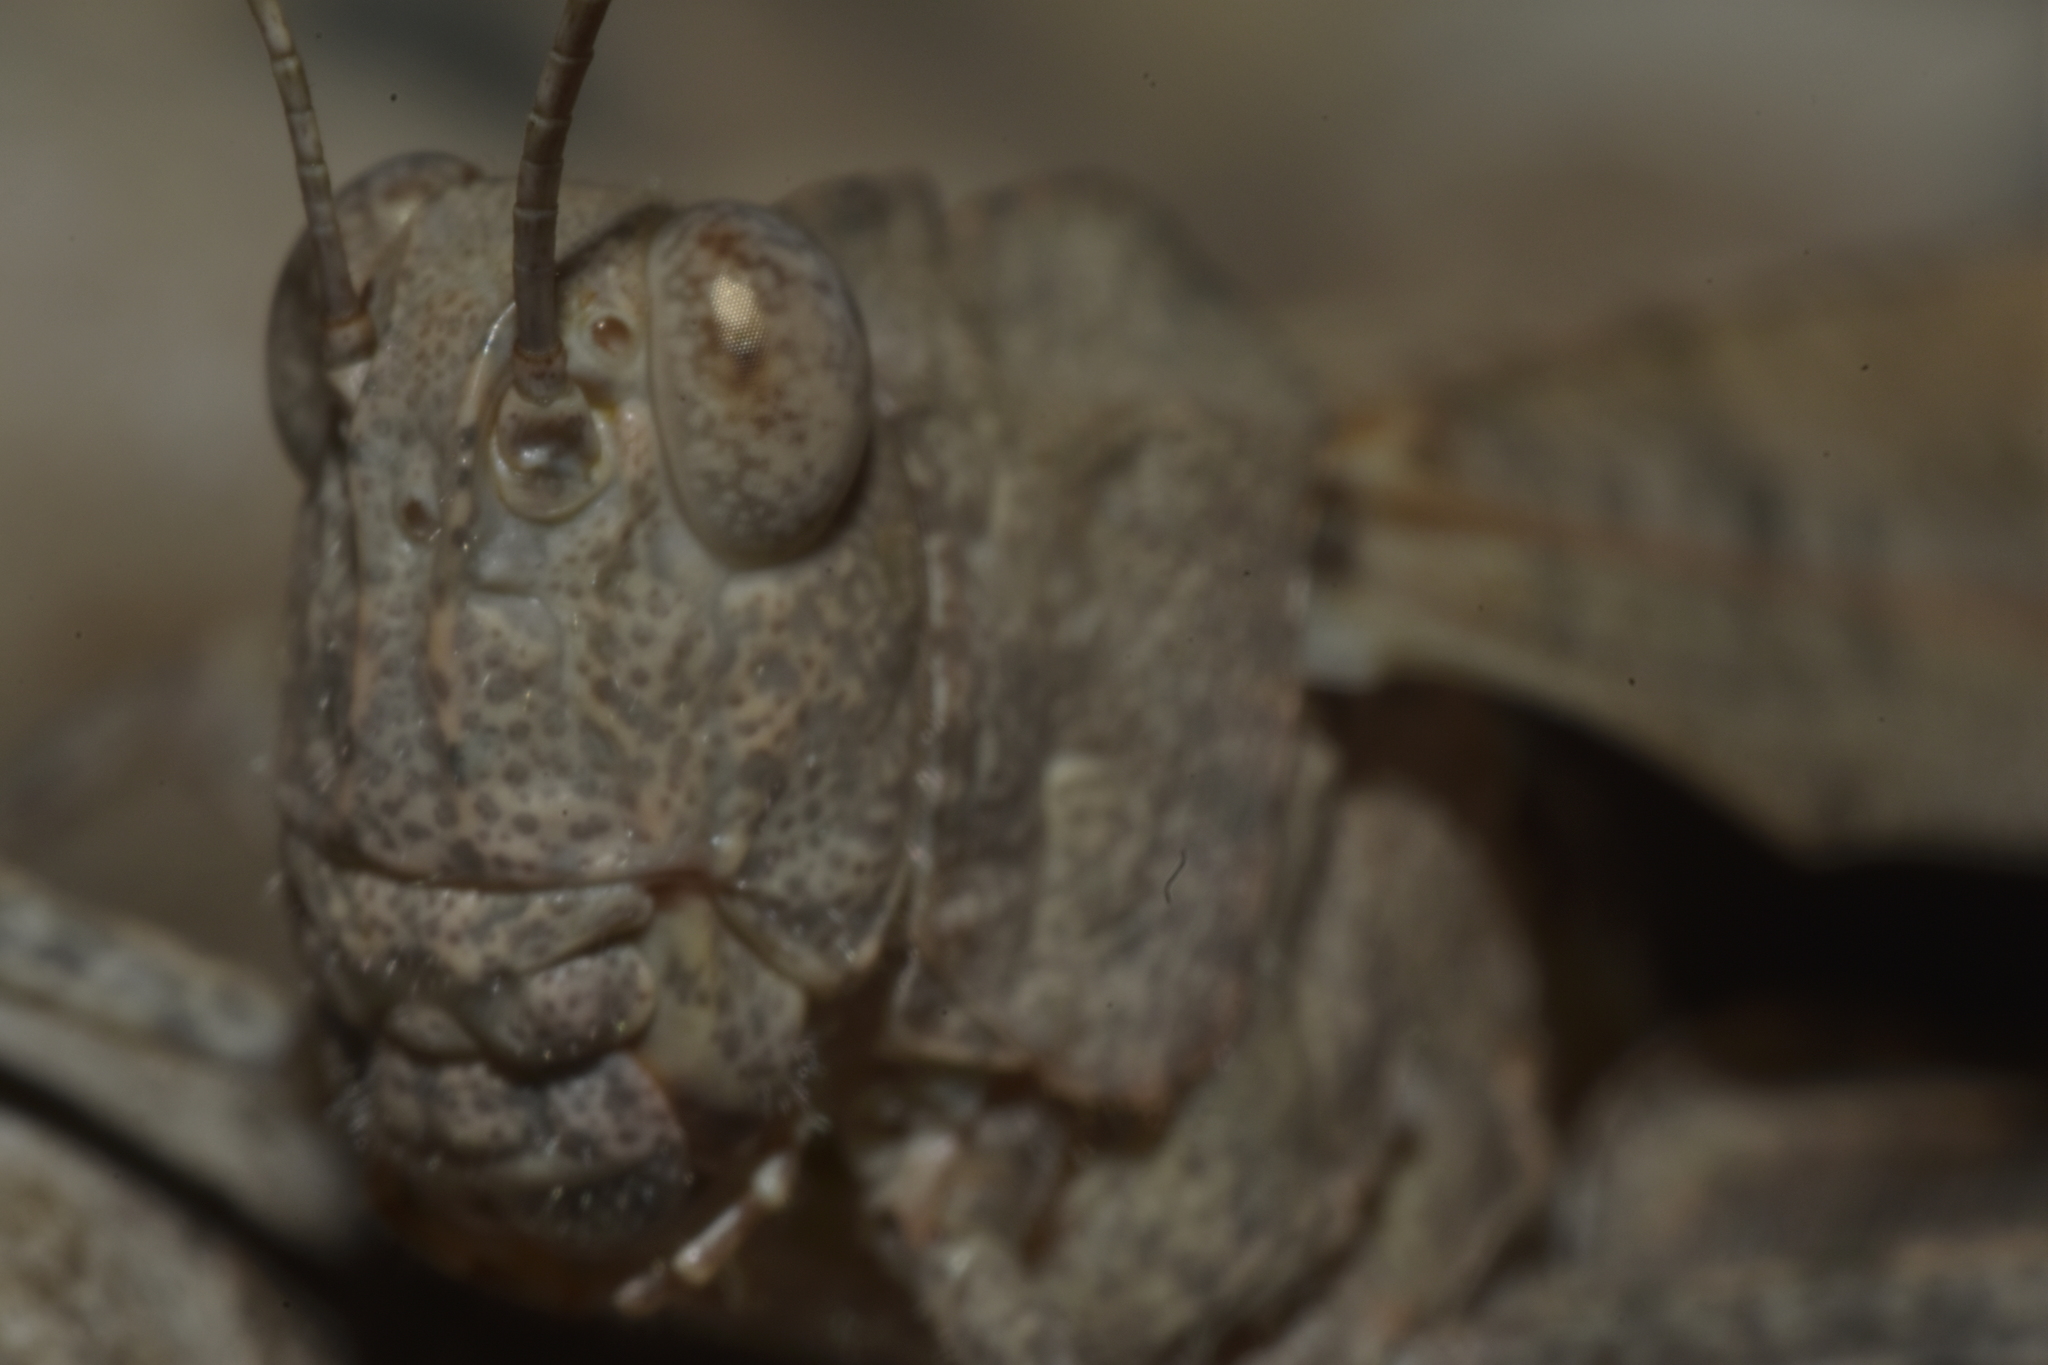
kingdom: Animalia
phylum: Arthropoda
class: Insecta
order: Orthoptera
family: Acrididae
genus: Dissosteira
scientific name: Dissosteira carolina
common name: Carolina grasshopper
